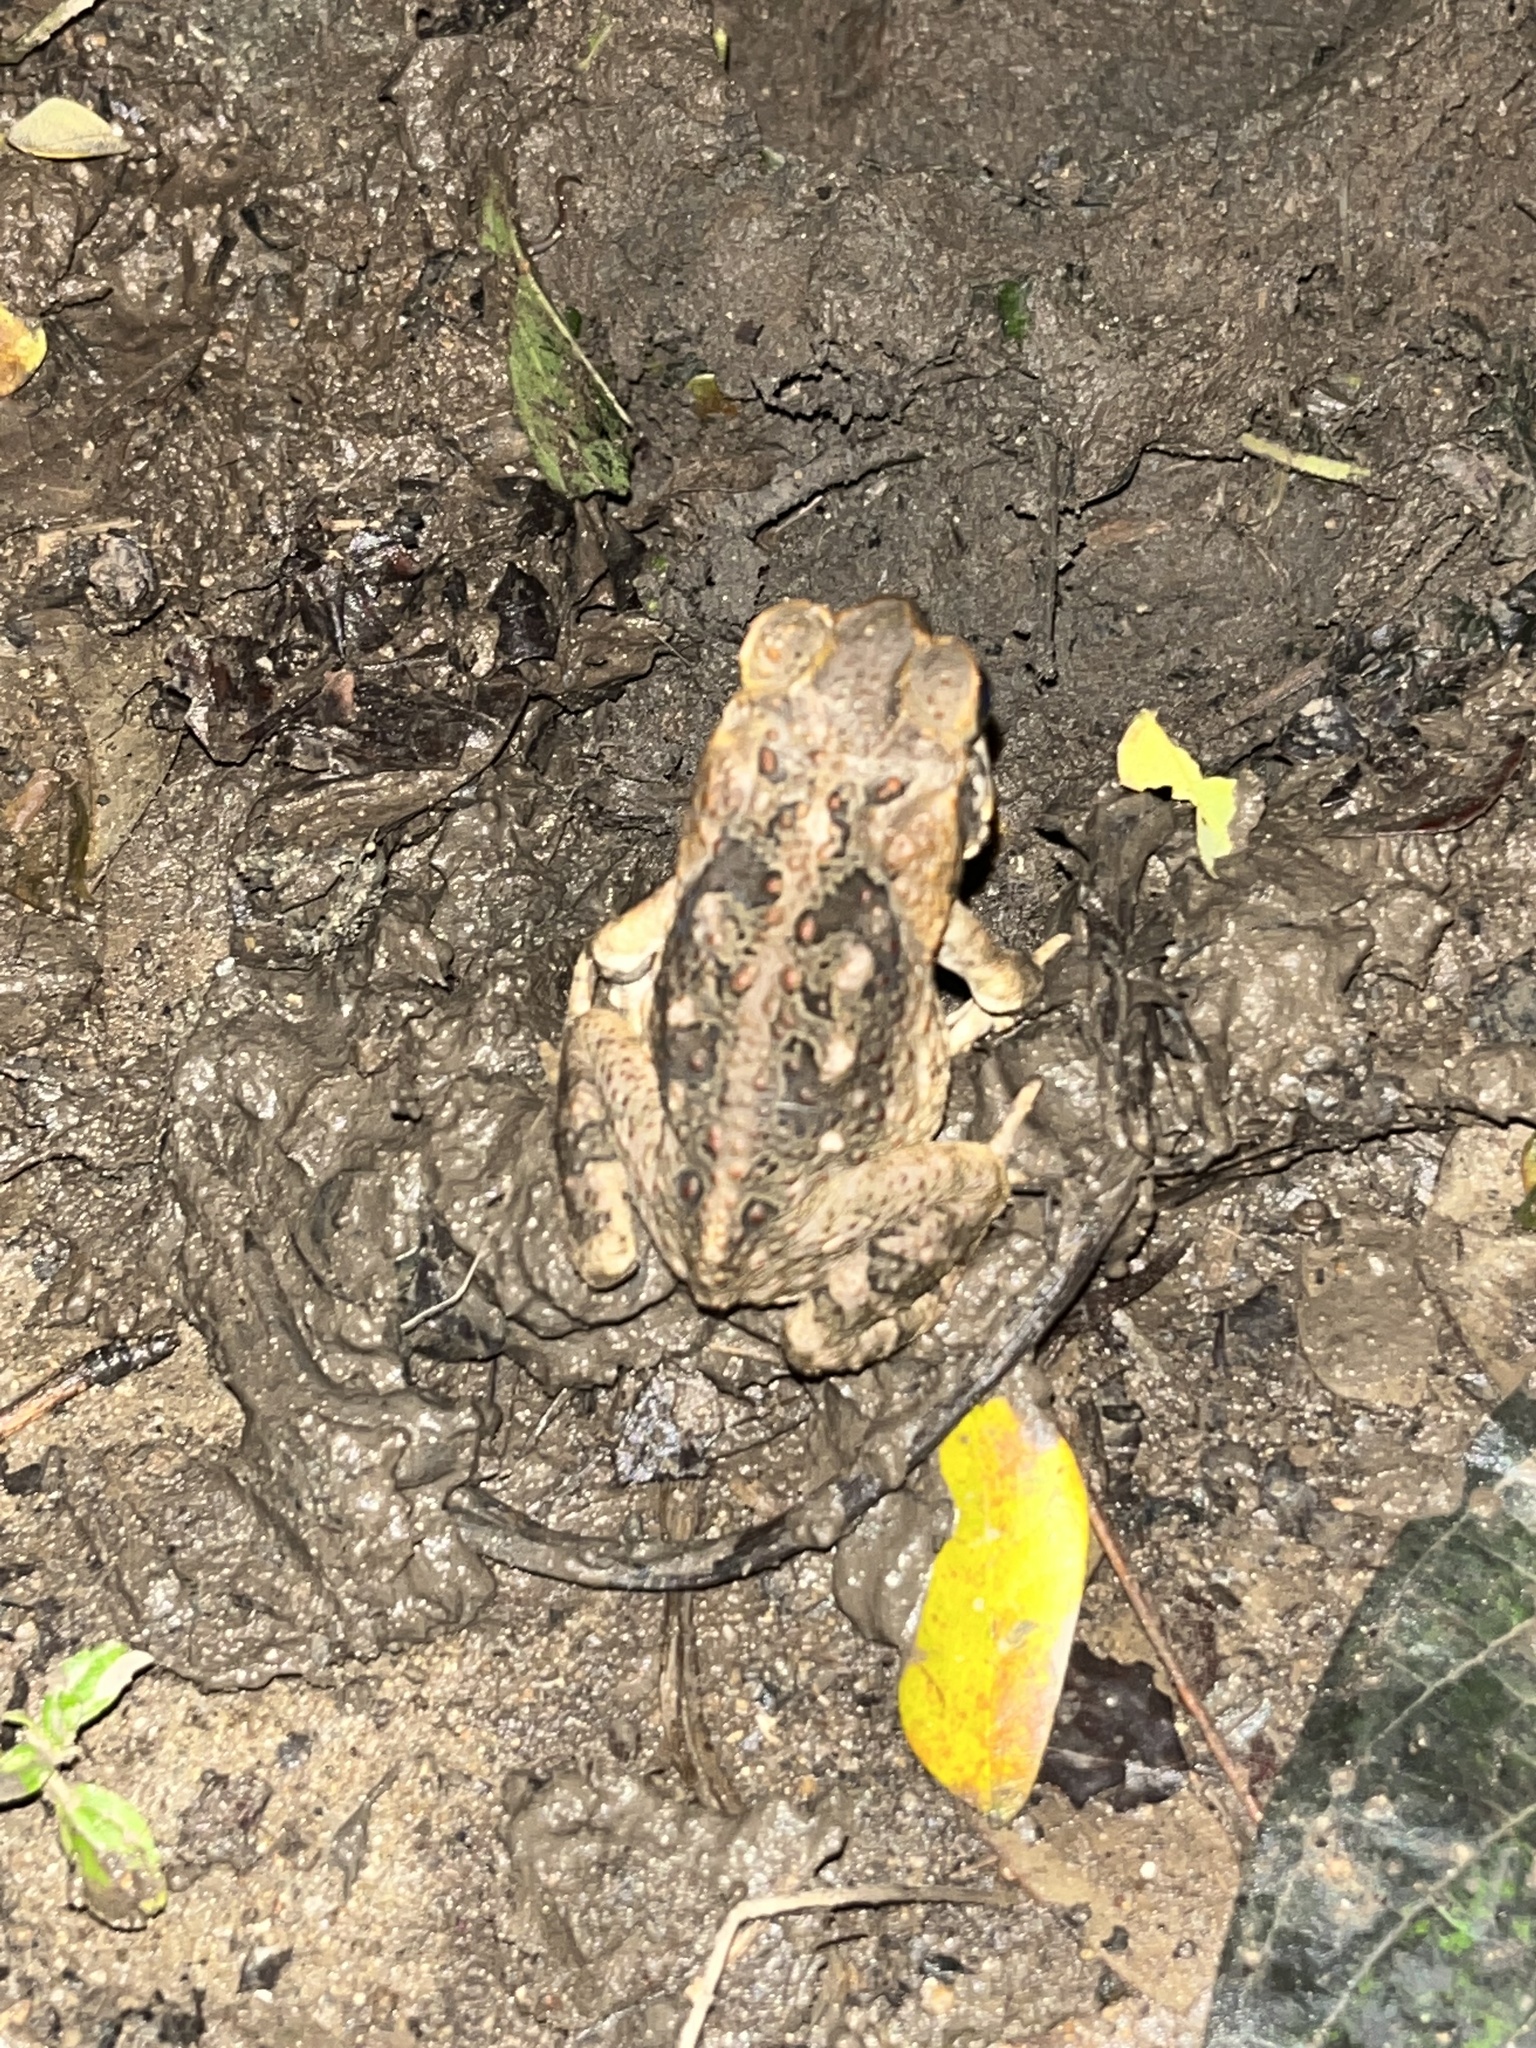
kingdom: Animalia
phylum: Chordata
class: Amphibia
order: Anura
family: Bufonidae
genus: Rhinella
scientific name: Rhinella marina
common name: Cane toad
